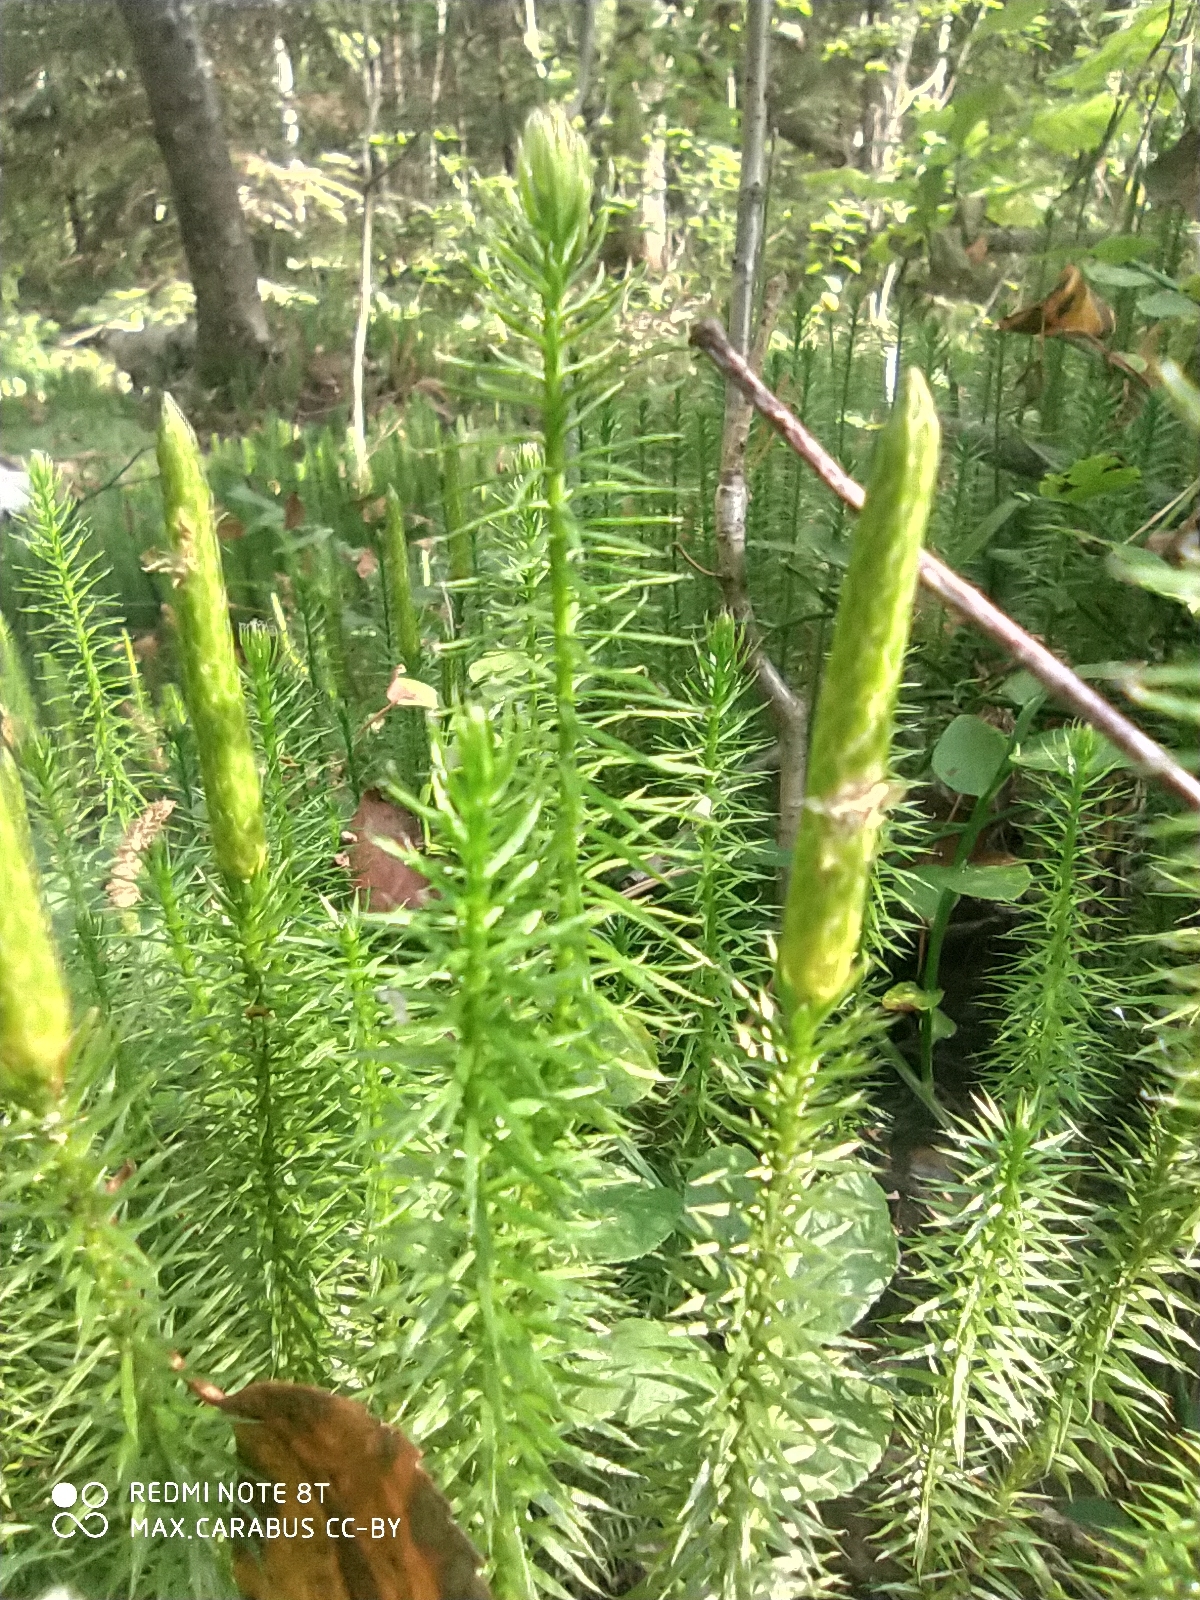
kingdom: Plantae
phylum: Tracheophyta
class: Lycopodiopsida
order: Lycopodiales
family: Lycopodiaceae
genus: Spinulum
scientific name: Spinulum annotinum
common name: Interrupted club-moss
